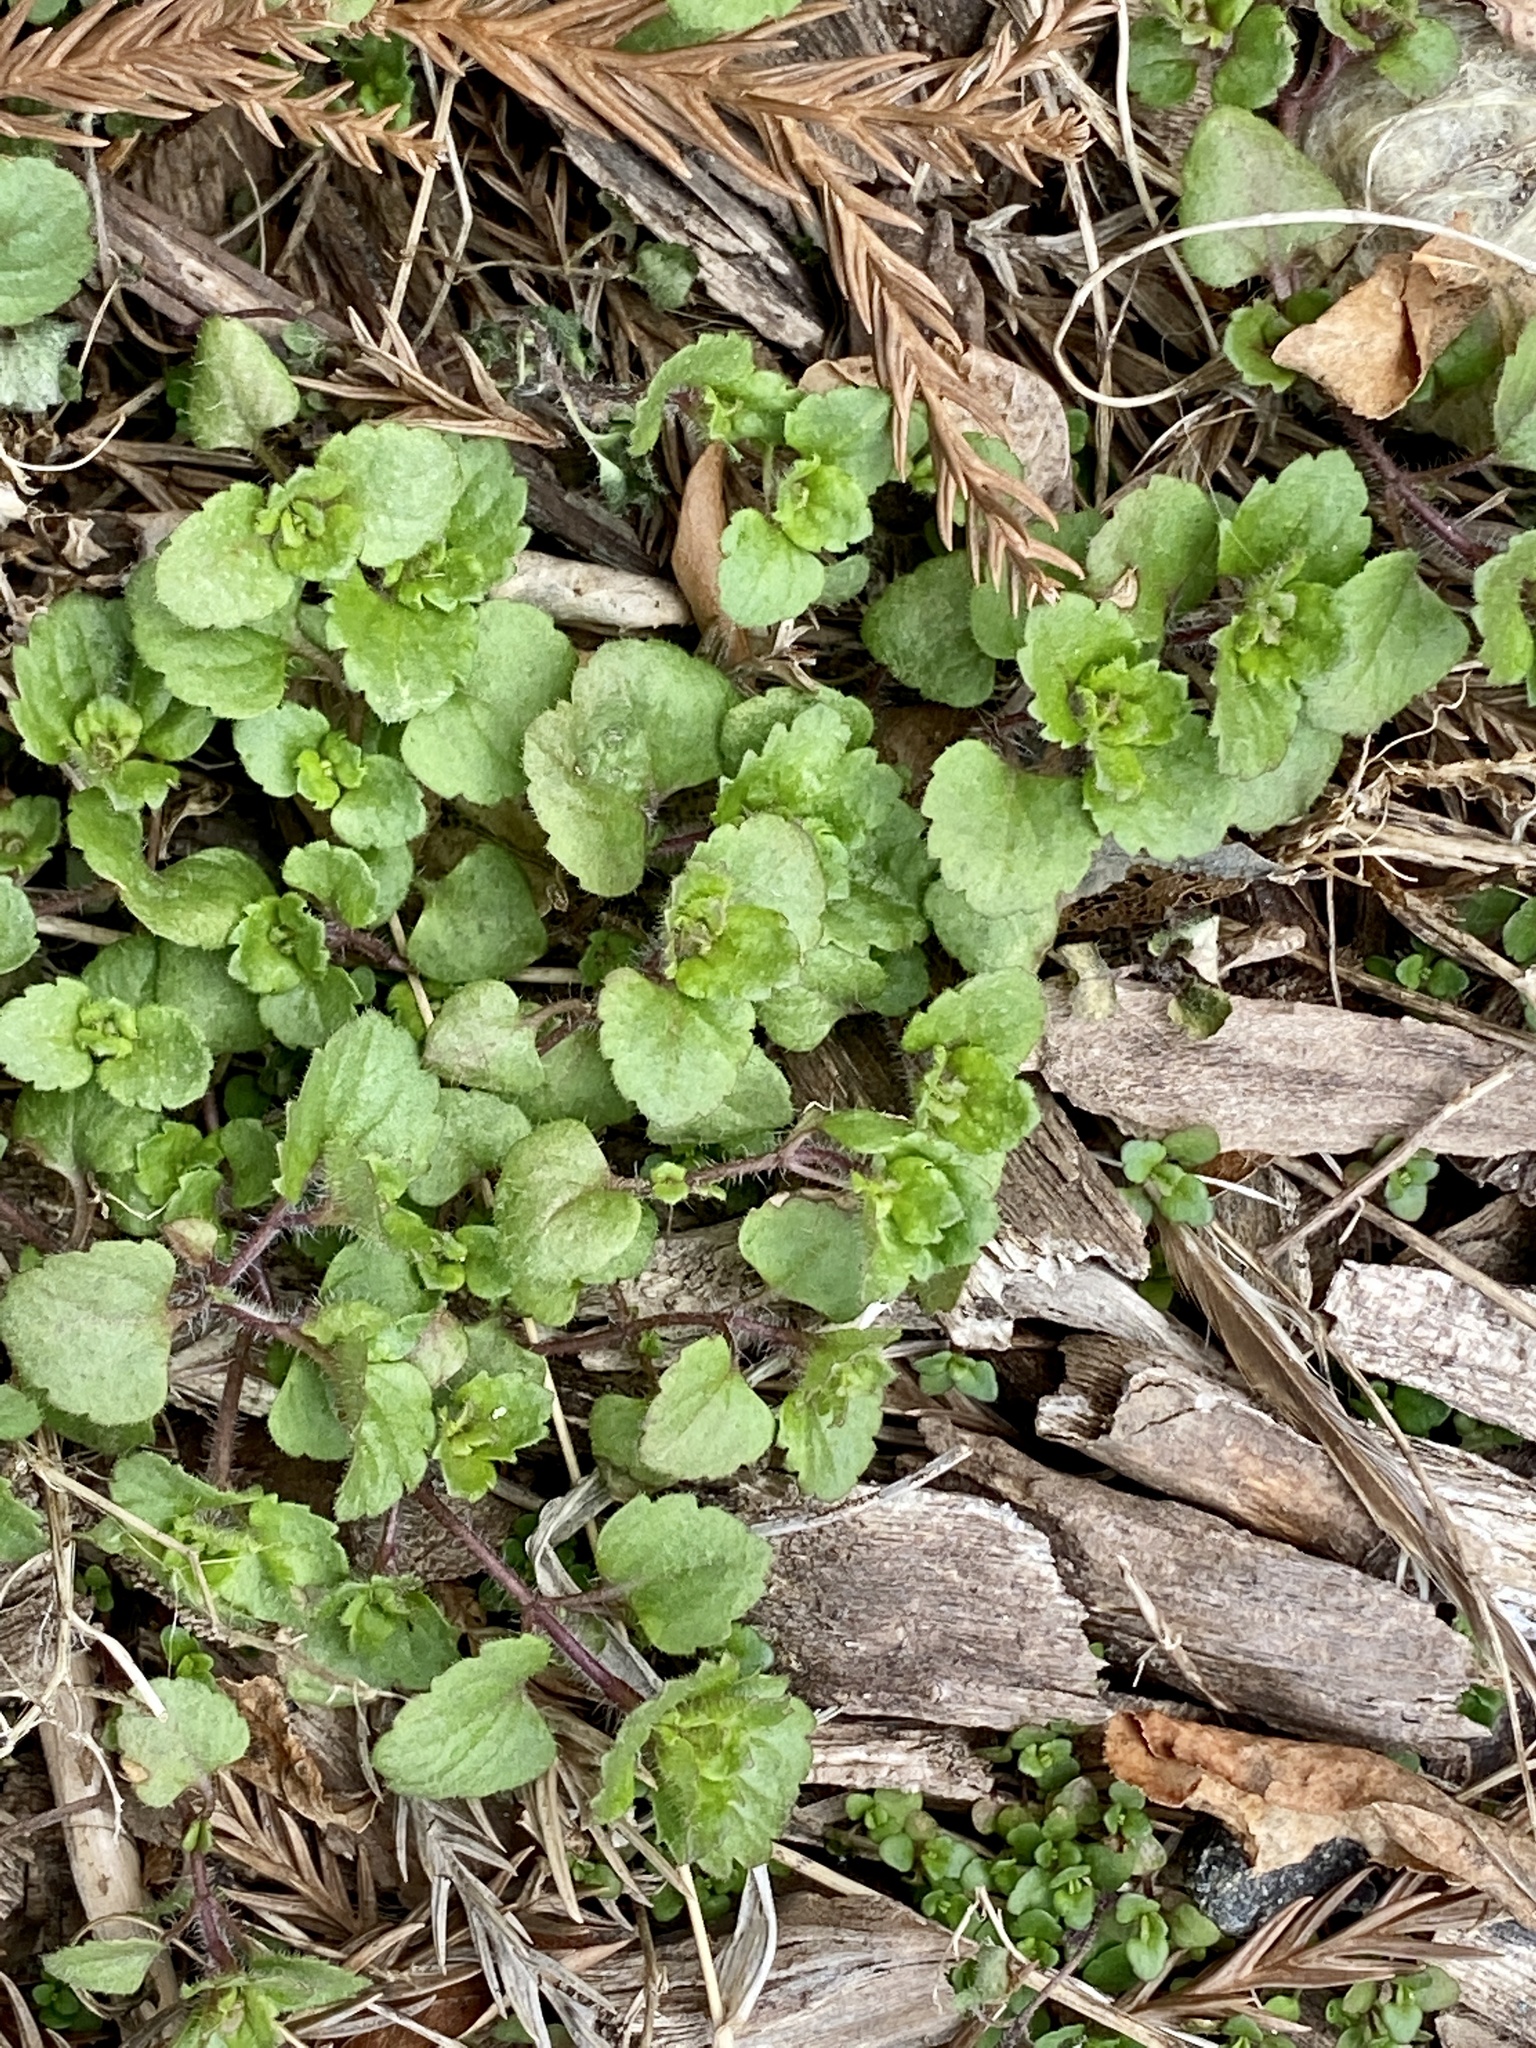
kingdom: Plantae
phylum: Tracheophyta
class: Magnoliopsida
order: Lamiales
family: Plantaginaceae
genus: Veronica
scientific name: Veronica arvensis
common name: Corn speedwell
